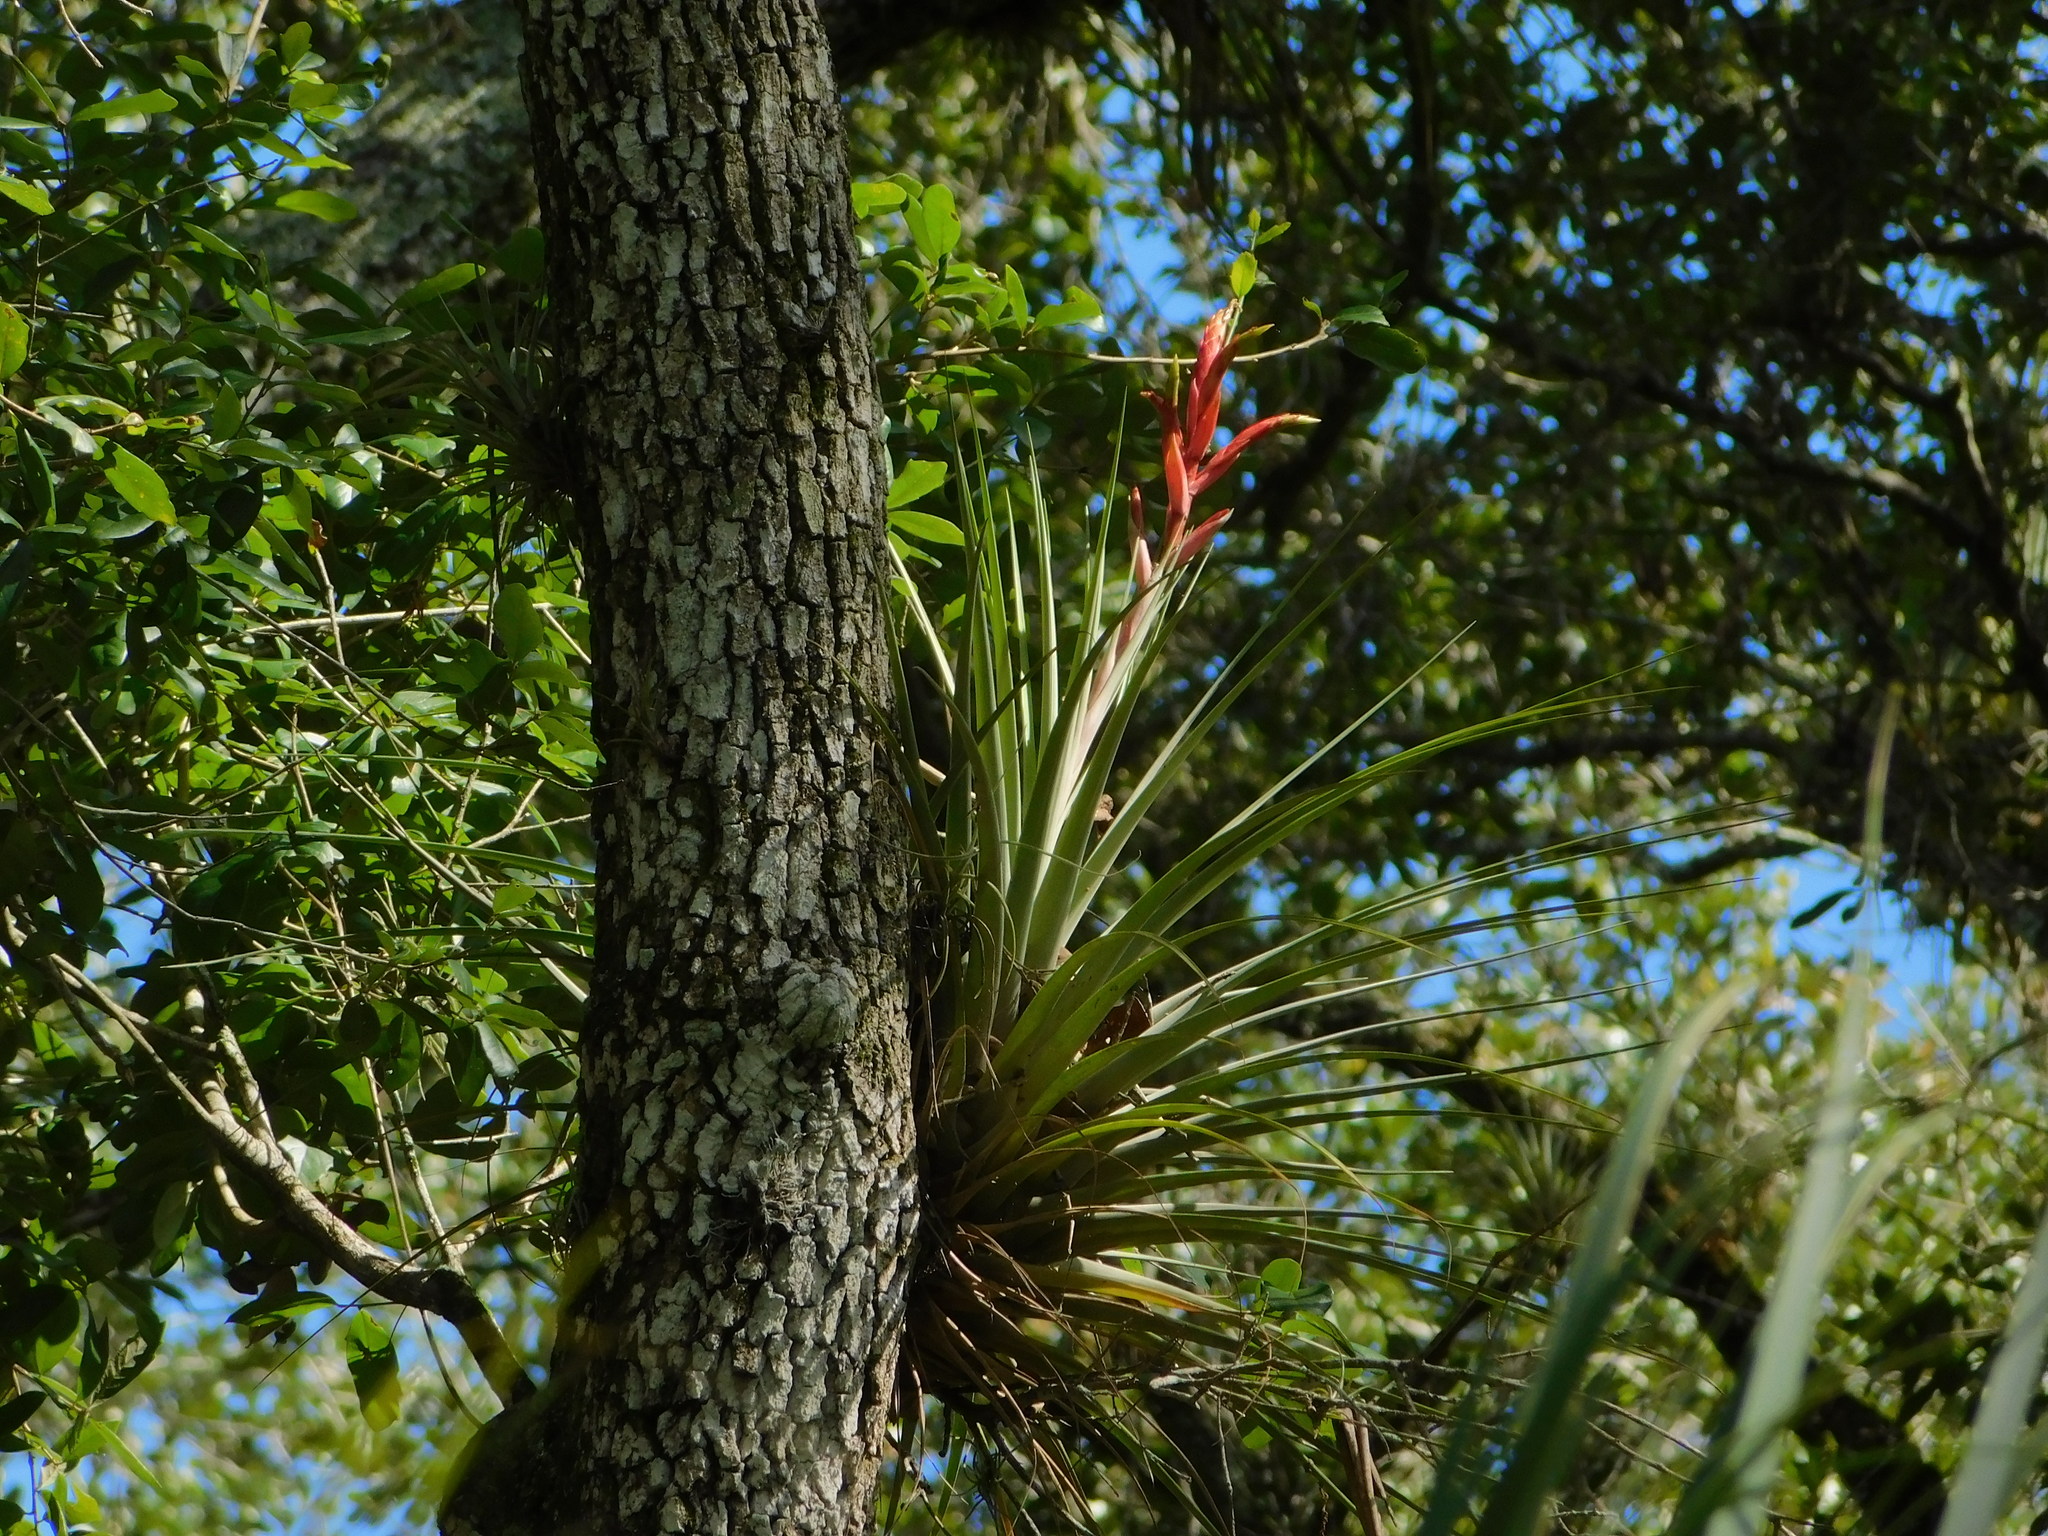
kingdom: Plantae
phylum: Tracheophyta
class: Liliopsida
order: Poales
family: Bromeliaceae
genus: Tillandsia
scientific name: Tillandsia fasciculata
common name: Giant airplant
